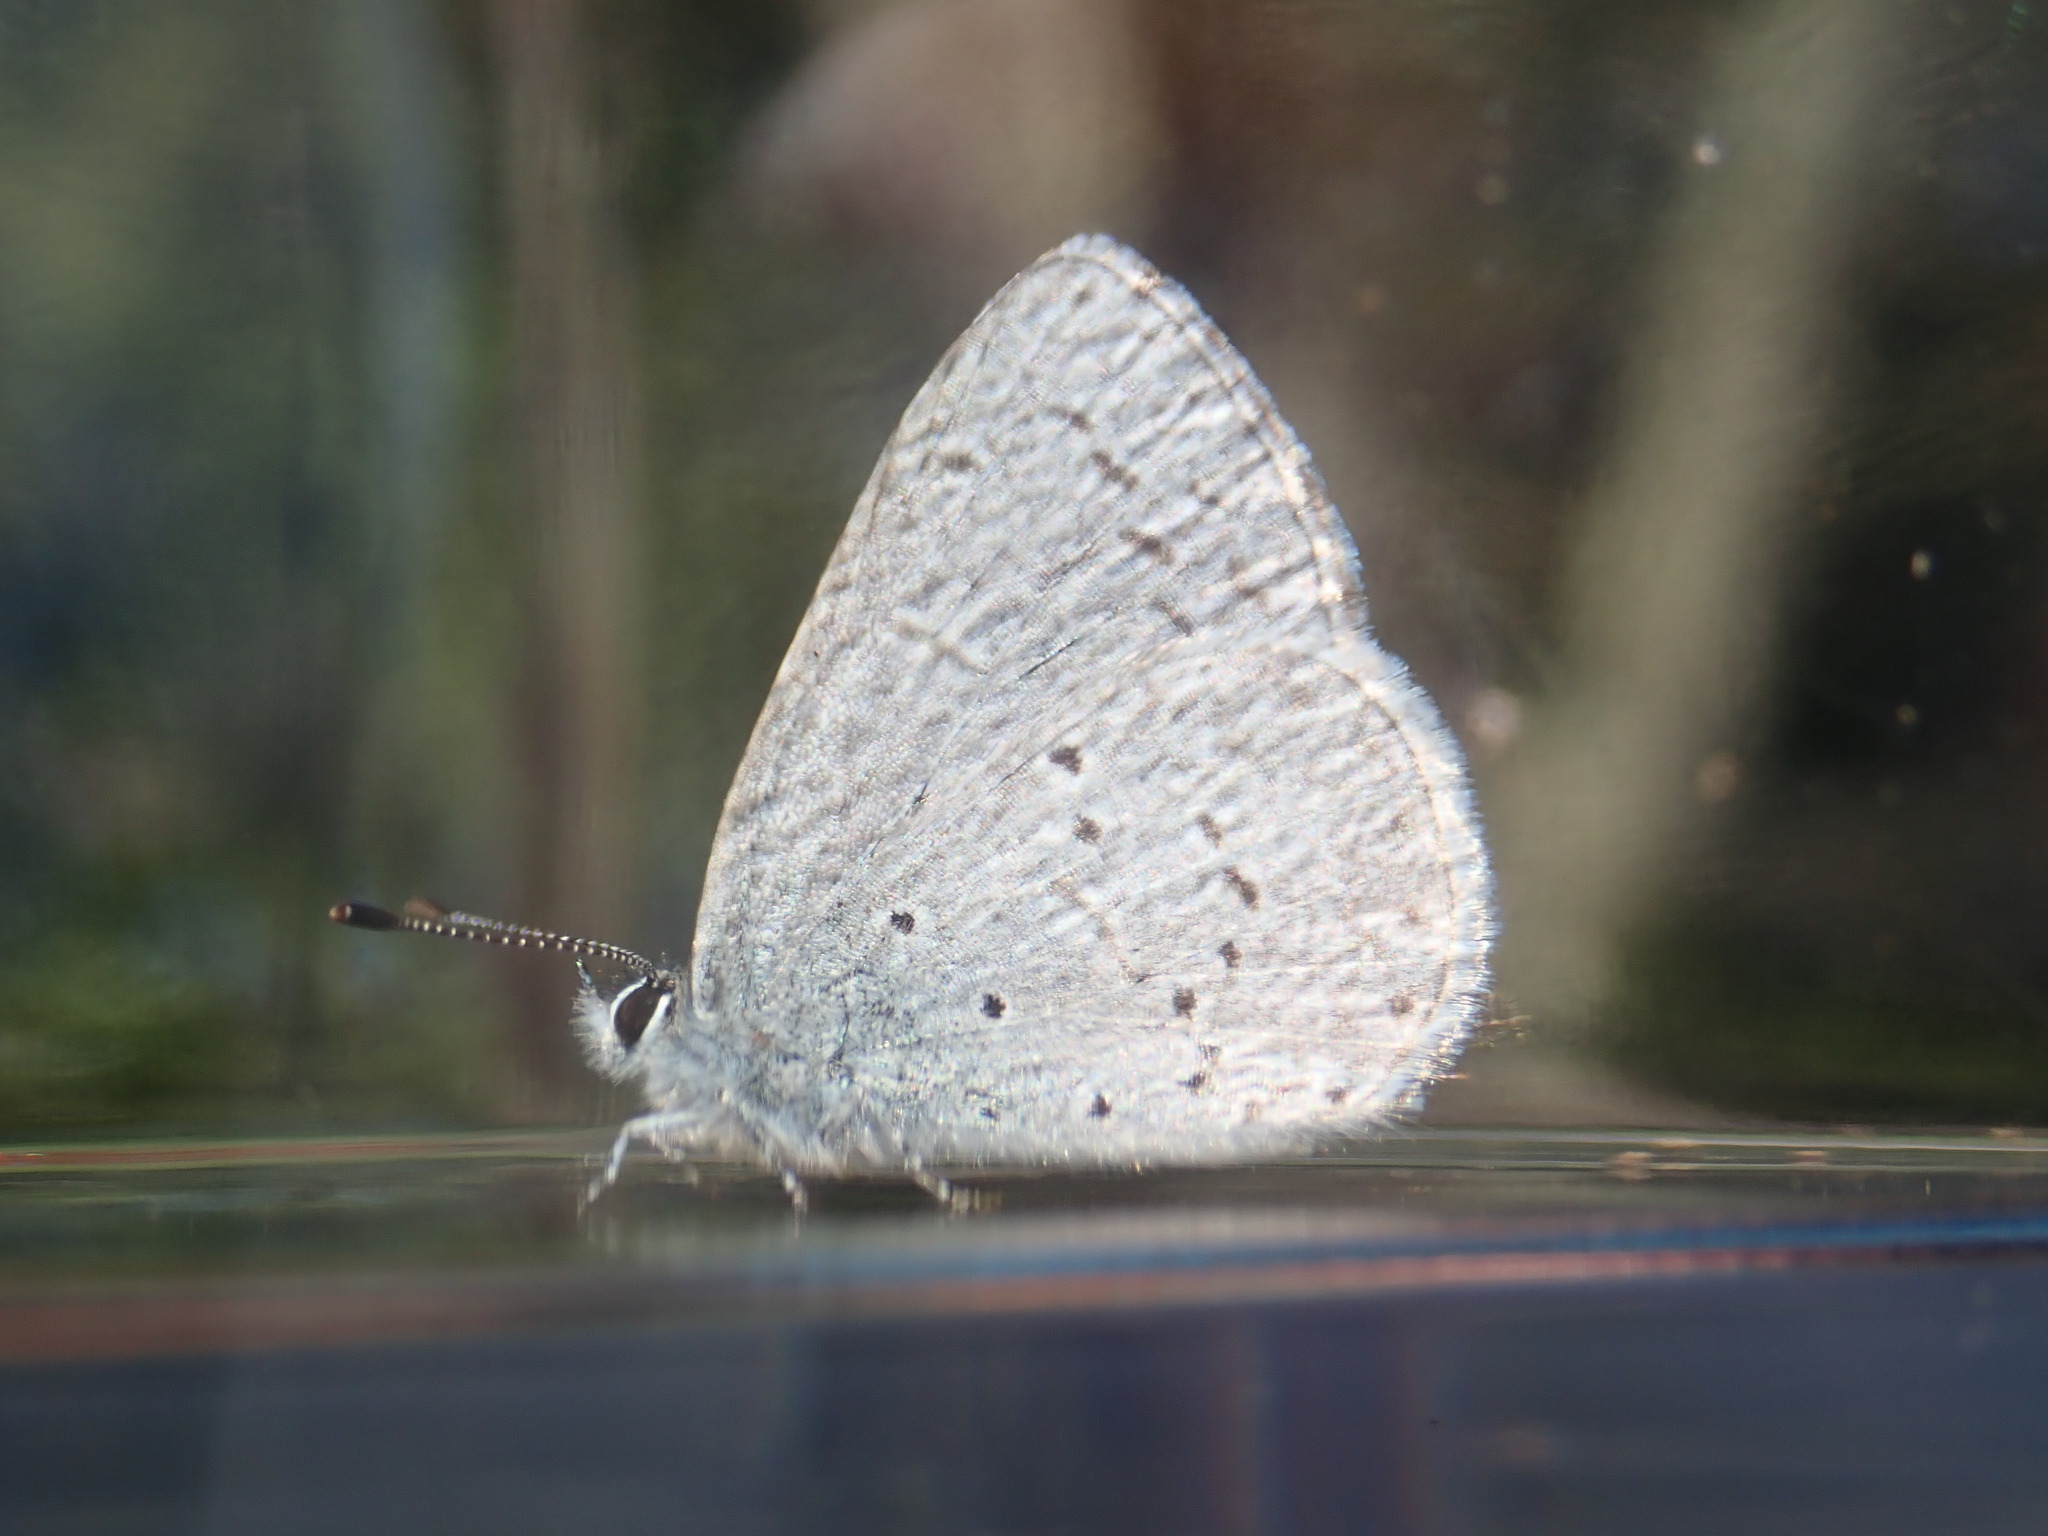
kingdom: Animalia
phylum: Arthropoda
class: Insecta
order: Lepidoptera
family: Lycaenidae
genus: Celastrina
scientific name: Celastrina ladon
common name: Spring azure
